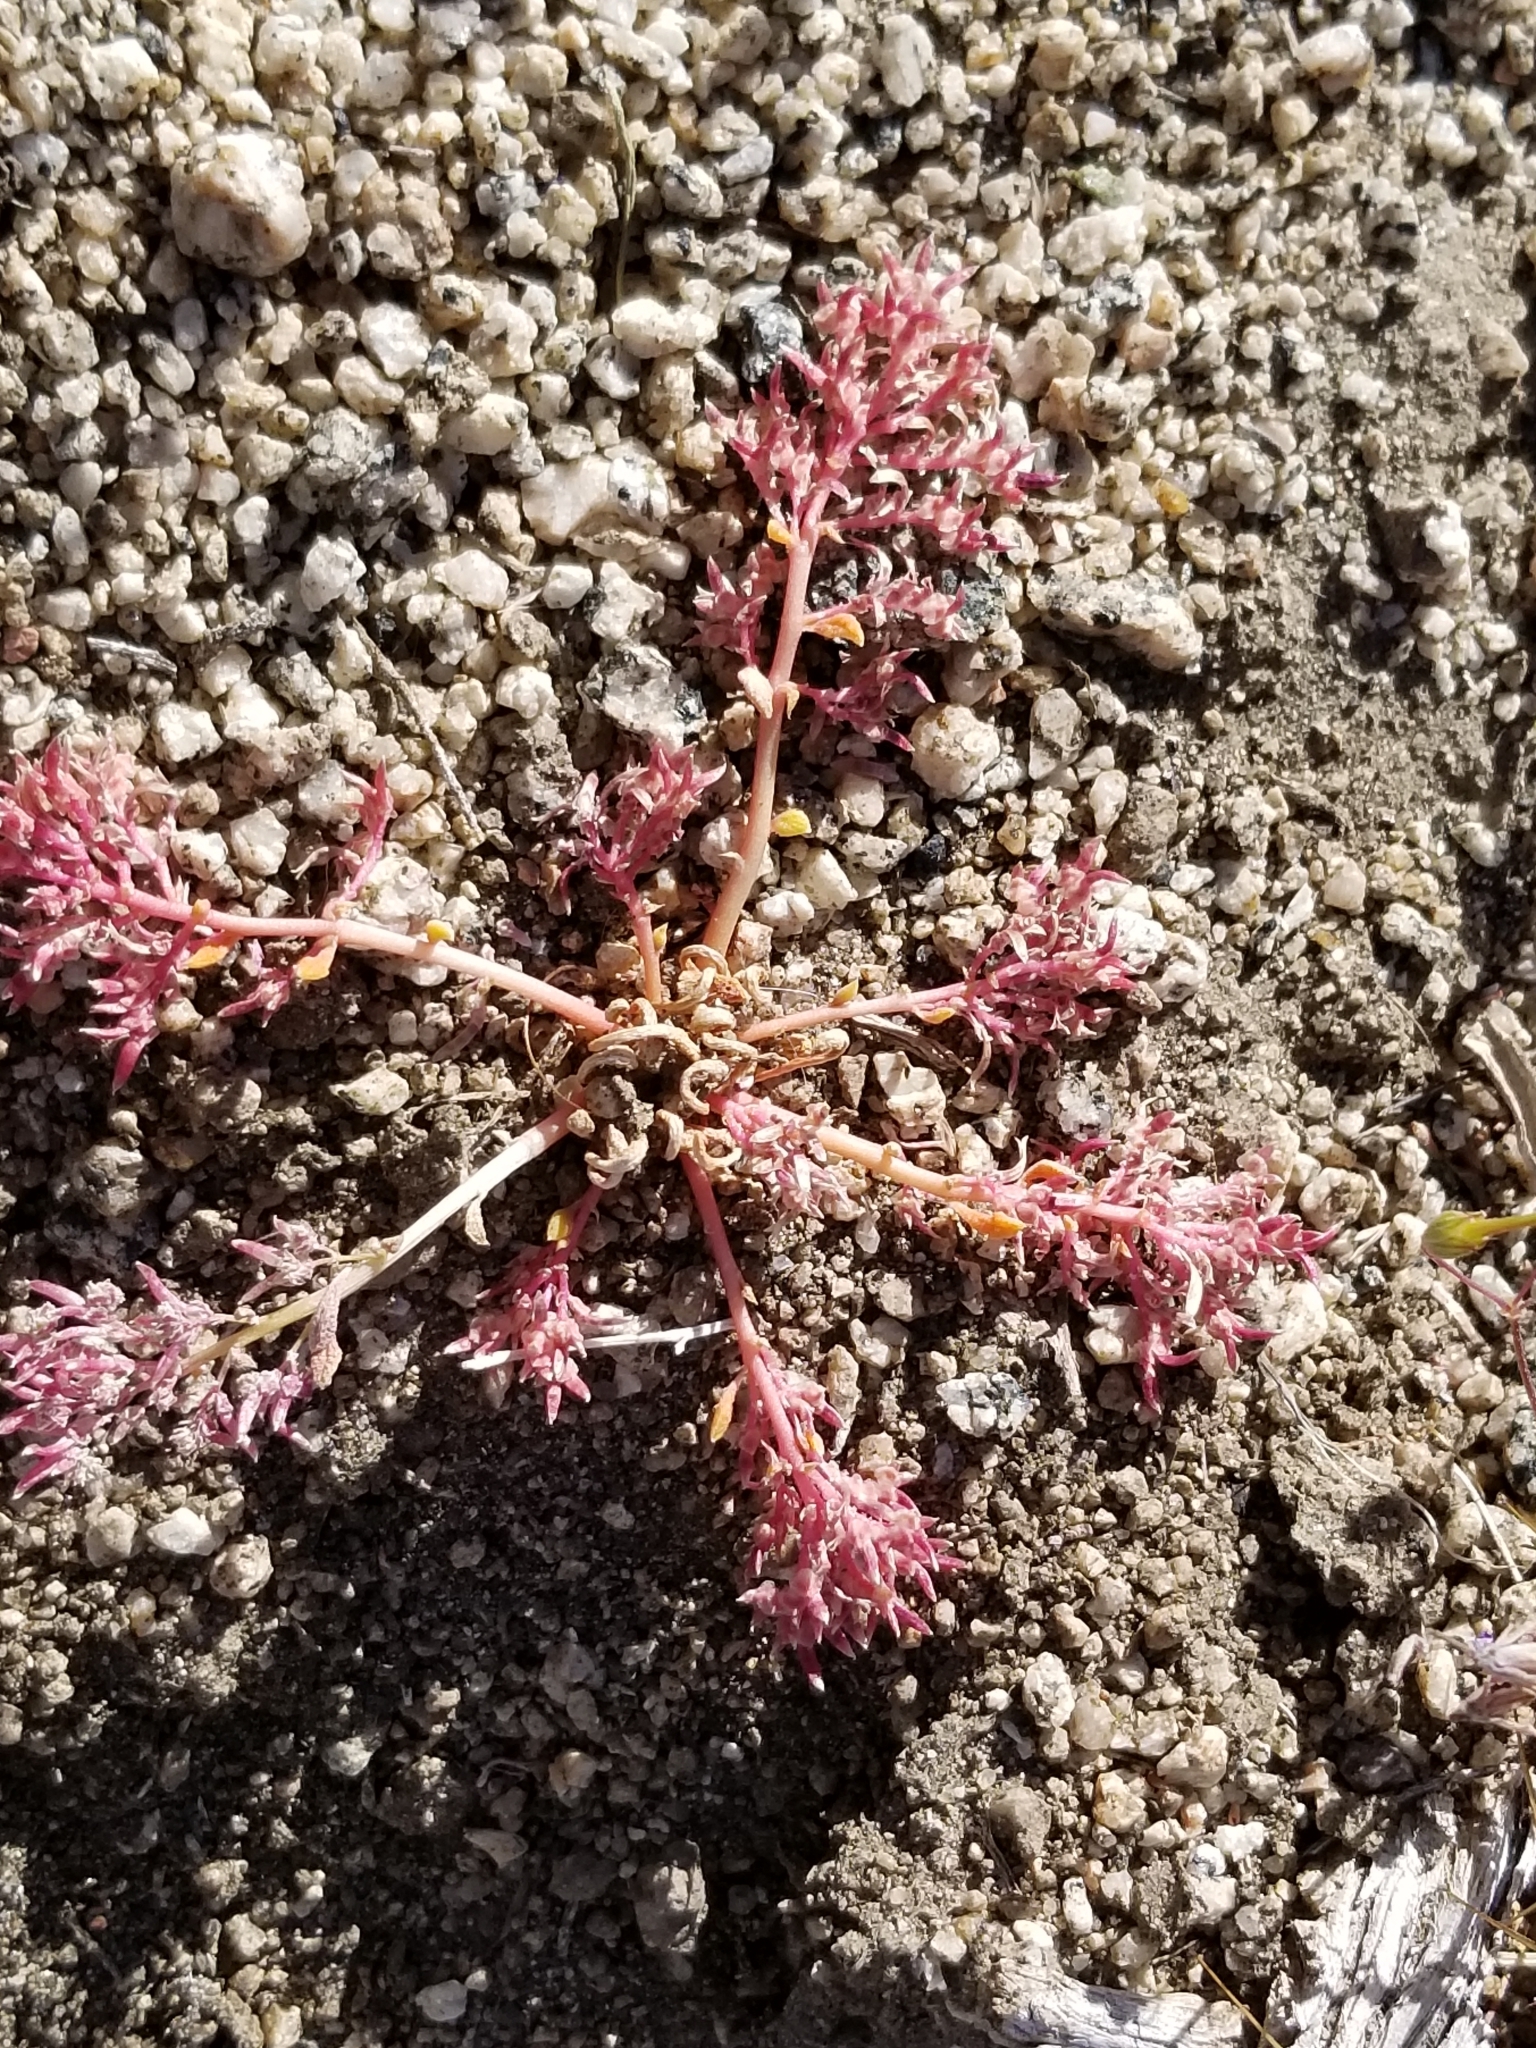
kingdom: Plantae
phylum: Tracheophyta
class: Magnoliopsida
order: Caryophyllales
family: Montiaceae
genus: Calyptridium
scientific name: Calyptridium monandrum
